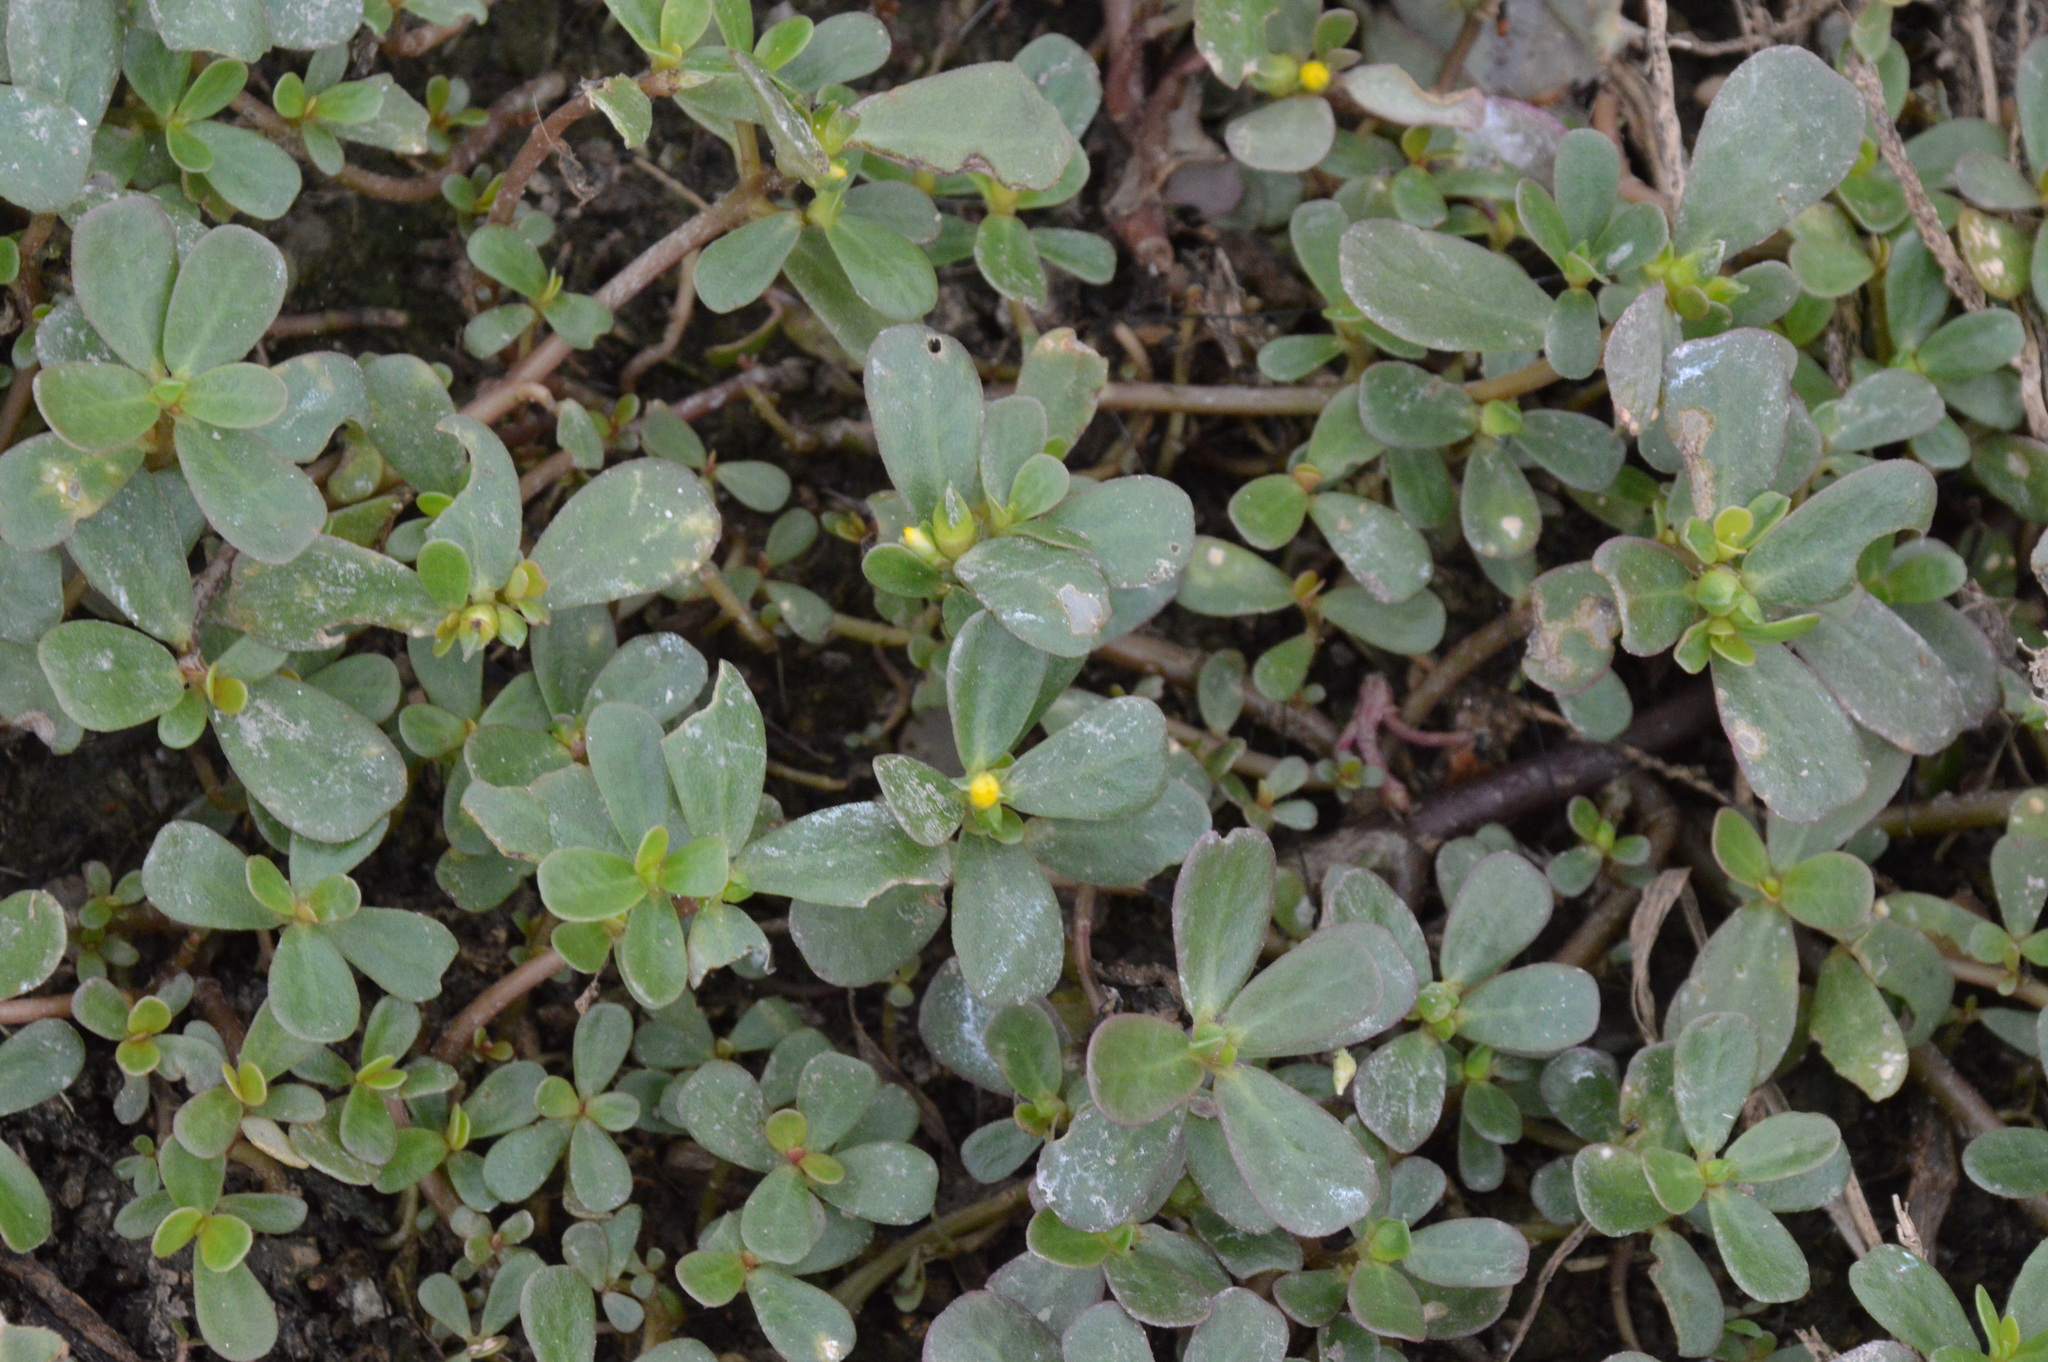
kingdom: Plantae
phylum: Tracheophyta
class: Magnoliopsida
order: Caryophyllales
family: Portulacaceae
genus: Portulaca
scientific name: Portulaca oleracea
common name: Common purslane
